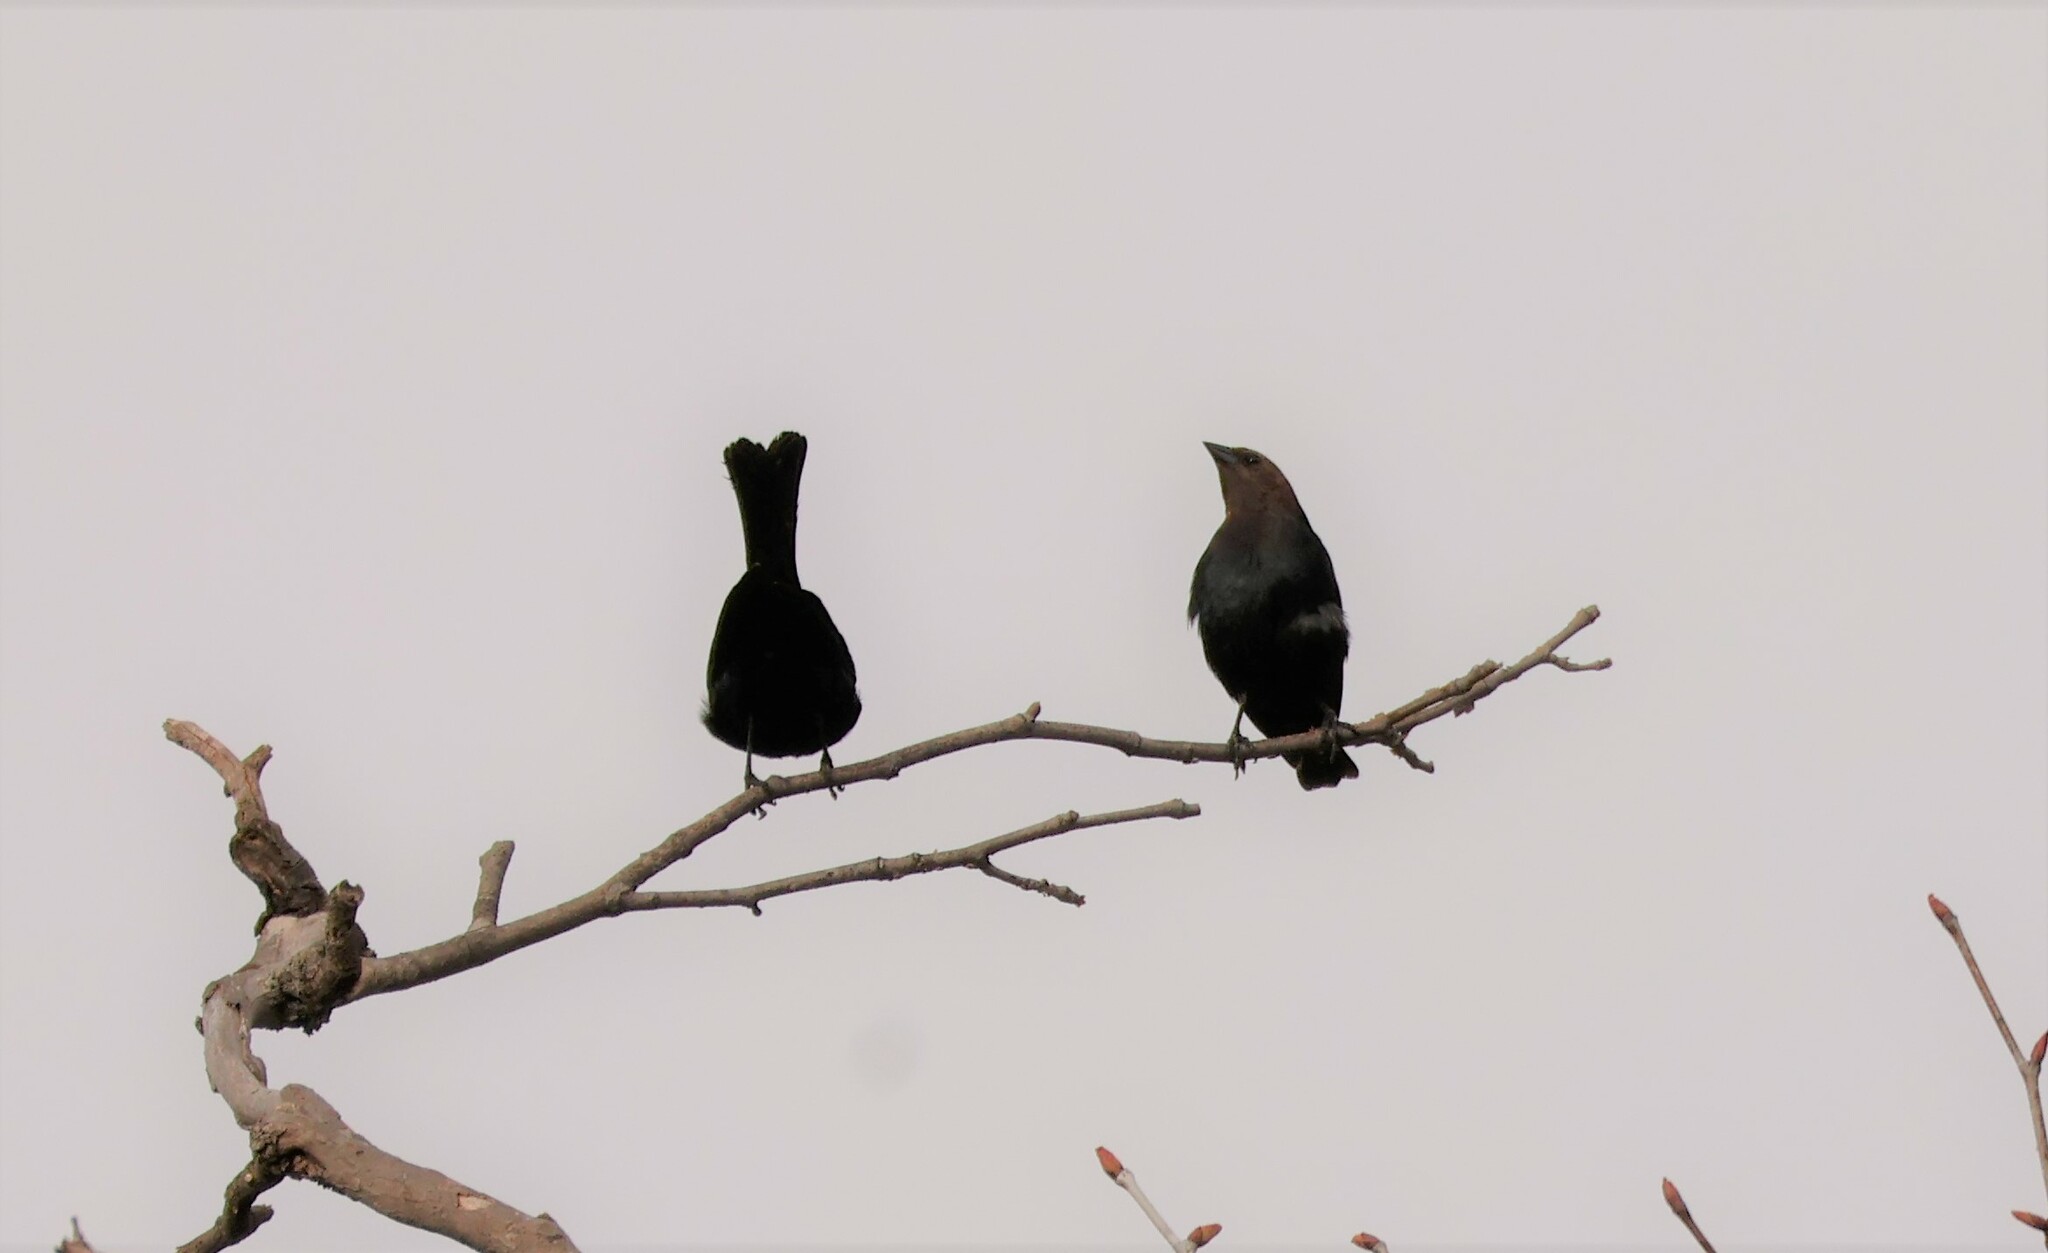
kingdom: Animalia
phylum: Chordata
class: Aves
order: Passeriformes
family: Icteridae
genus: Molothrus
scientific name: Molothrus ater
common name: Brown-headed cowbird
